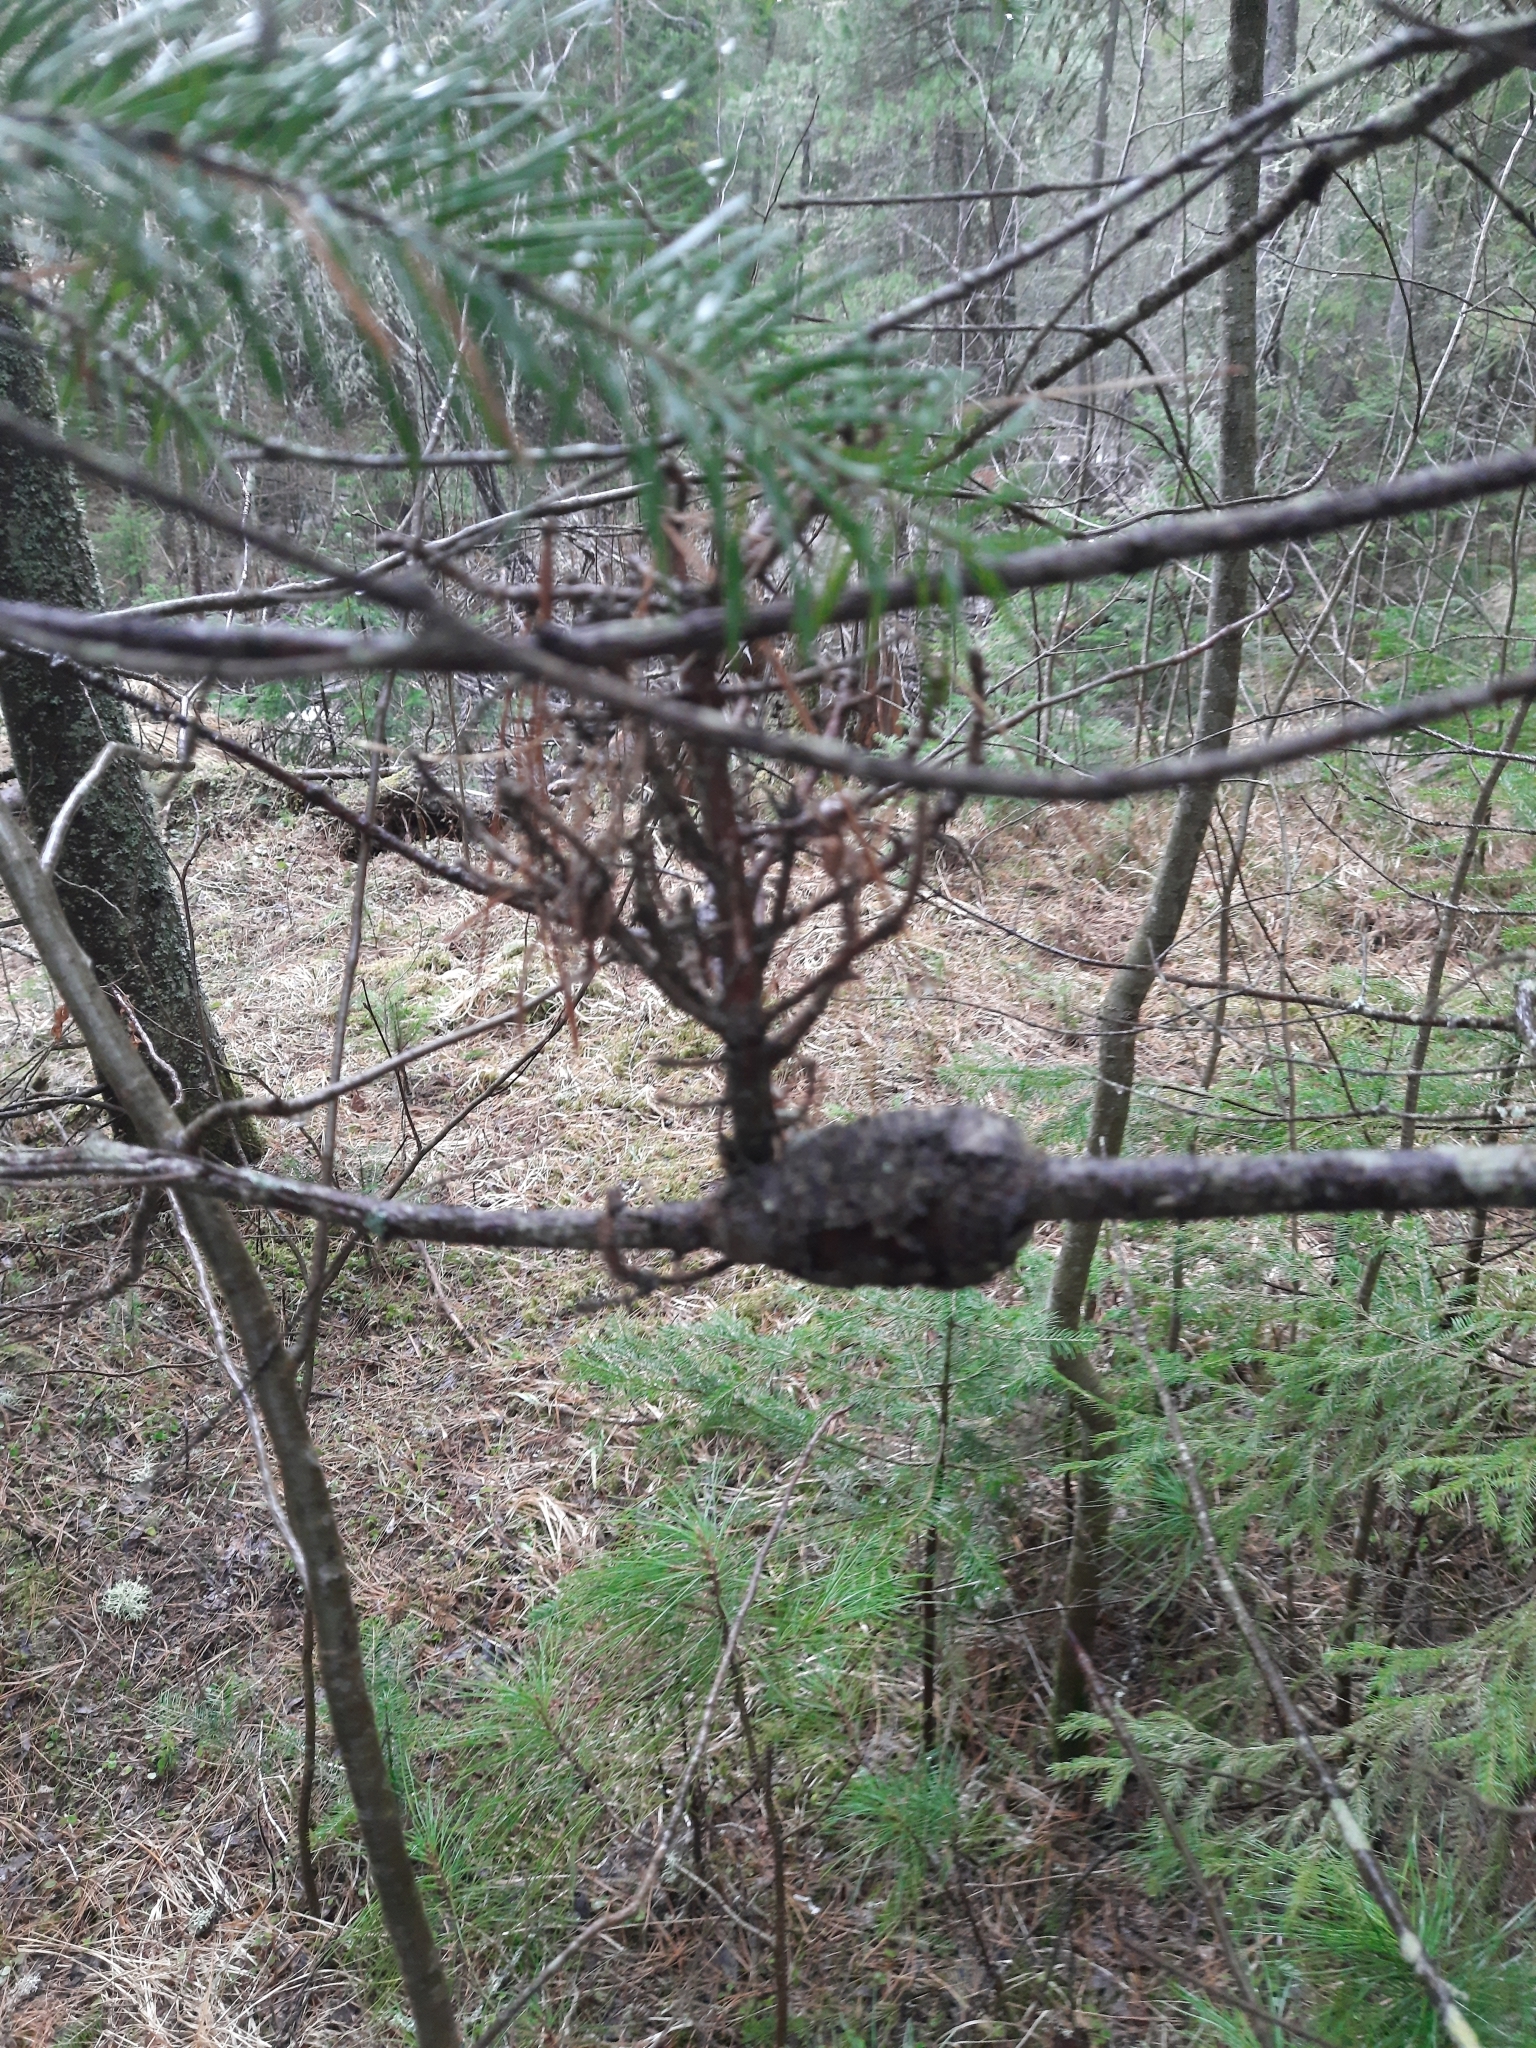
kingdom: Plantae
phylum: Tracheophyta
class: Pinopsida
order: Pinales
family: Pinaceae
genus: Abies
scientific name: Abies sibirica
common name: Siberian fir
